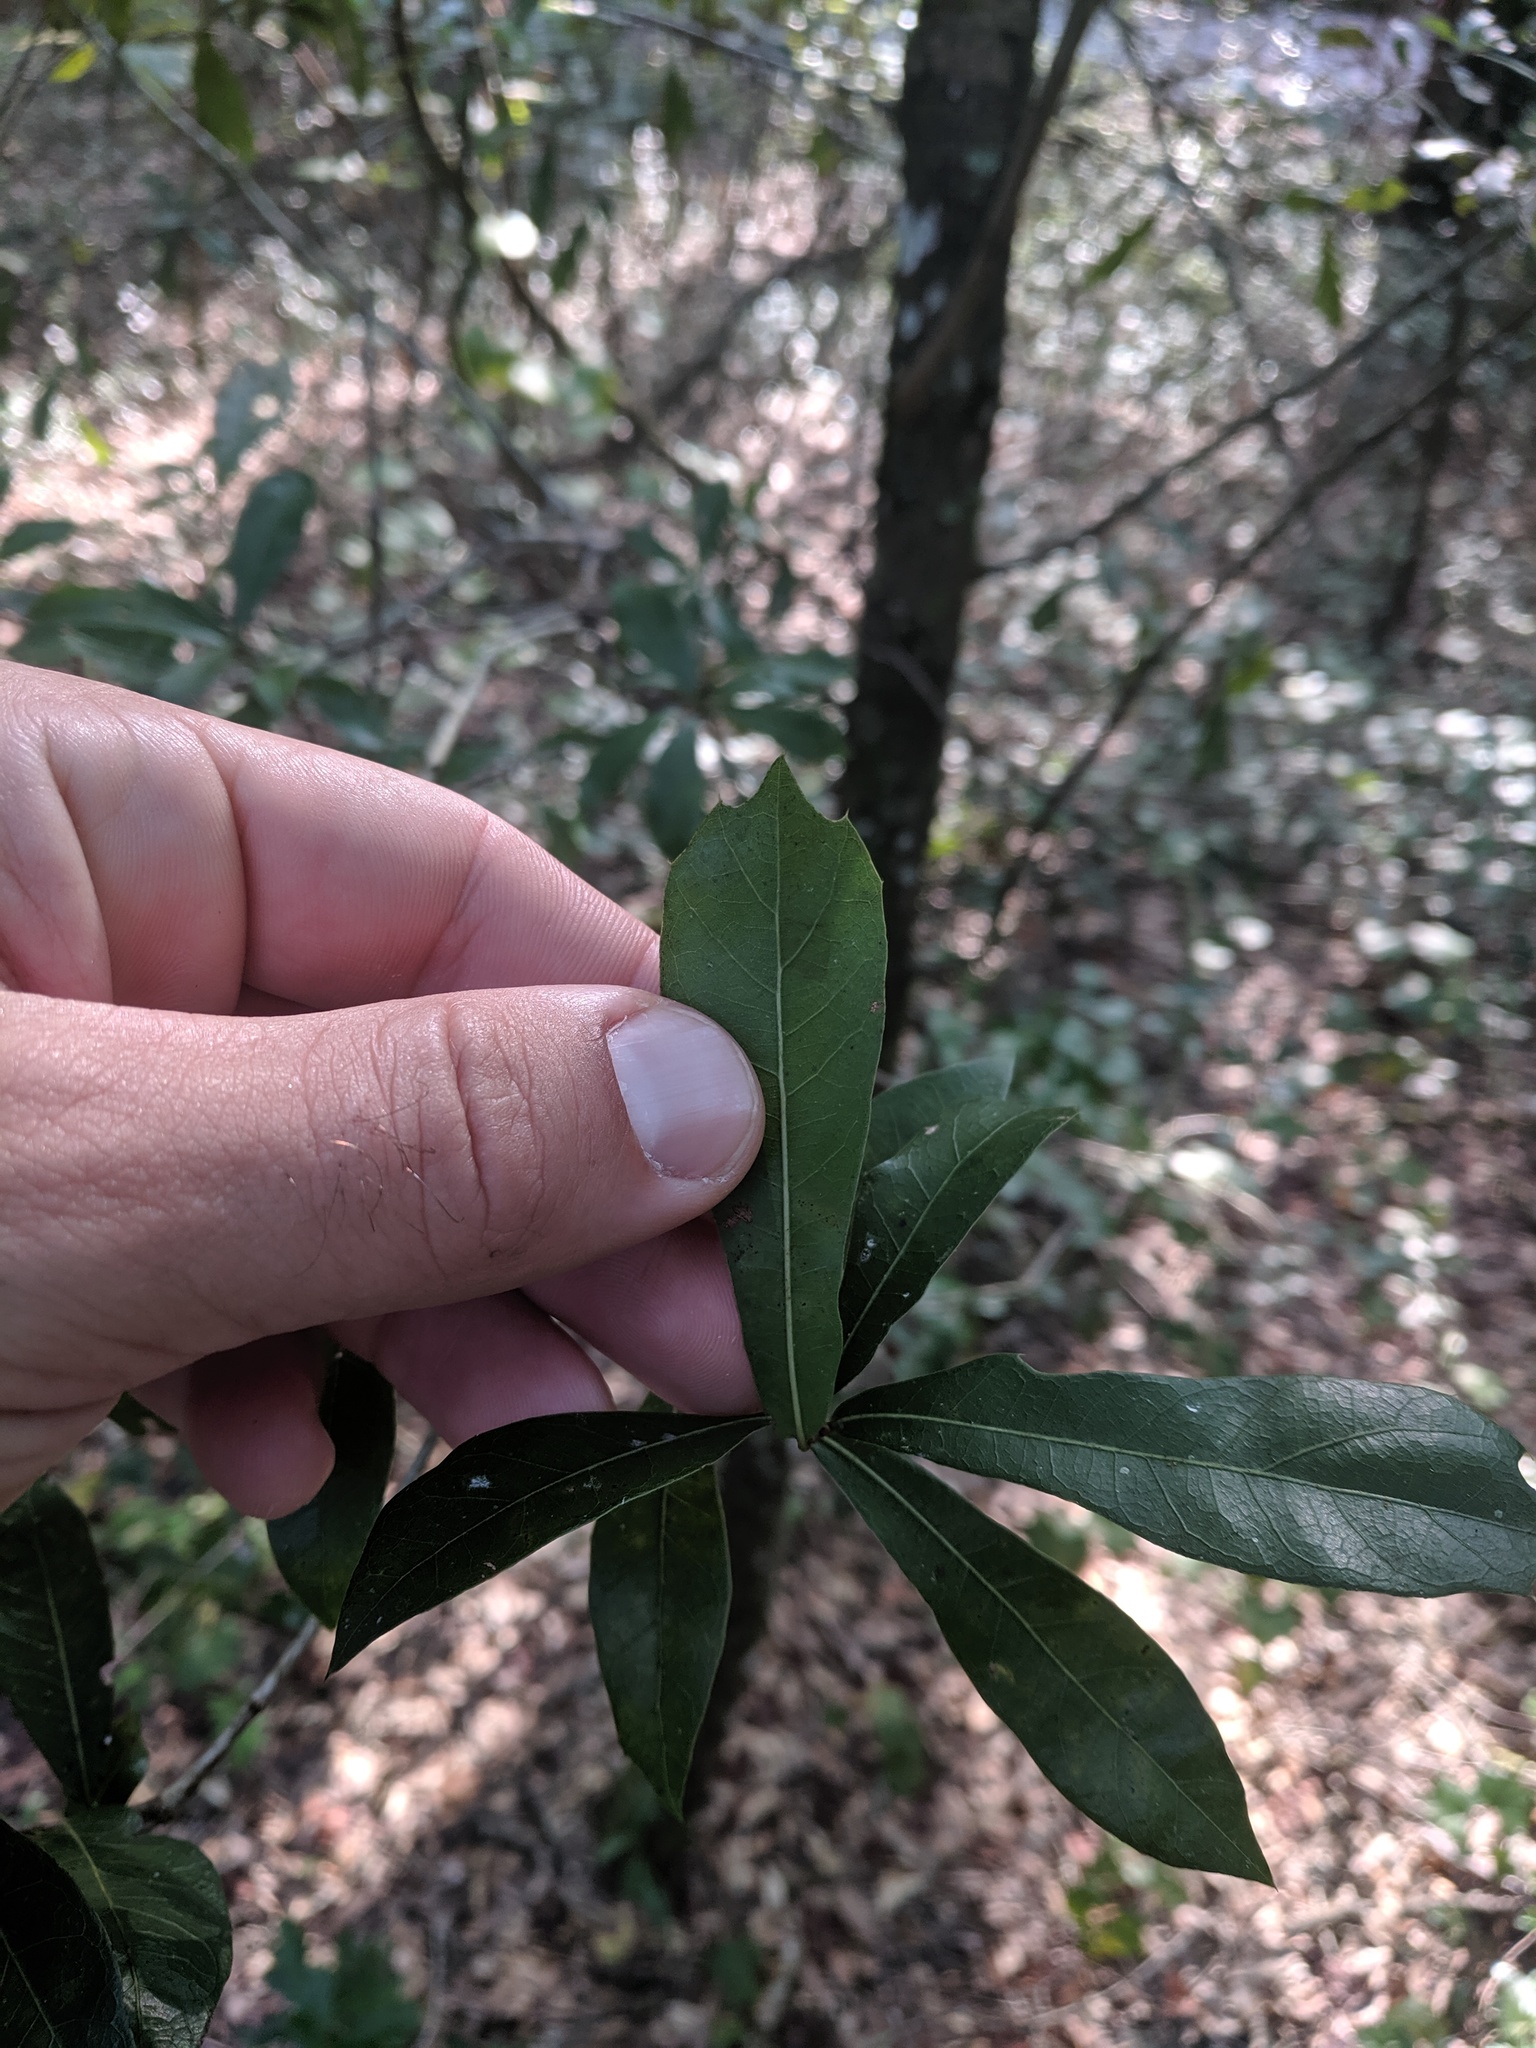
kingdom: Plantae
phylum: Tracheophyta
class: Magnoliopsida
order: Fagales
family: Fagaceae
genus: Quercus
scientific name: Quercus hemisphaerica
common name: Darlington oak
